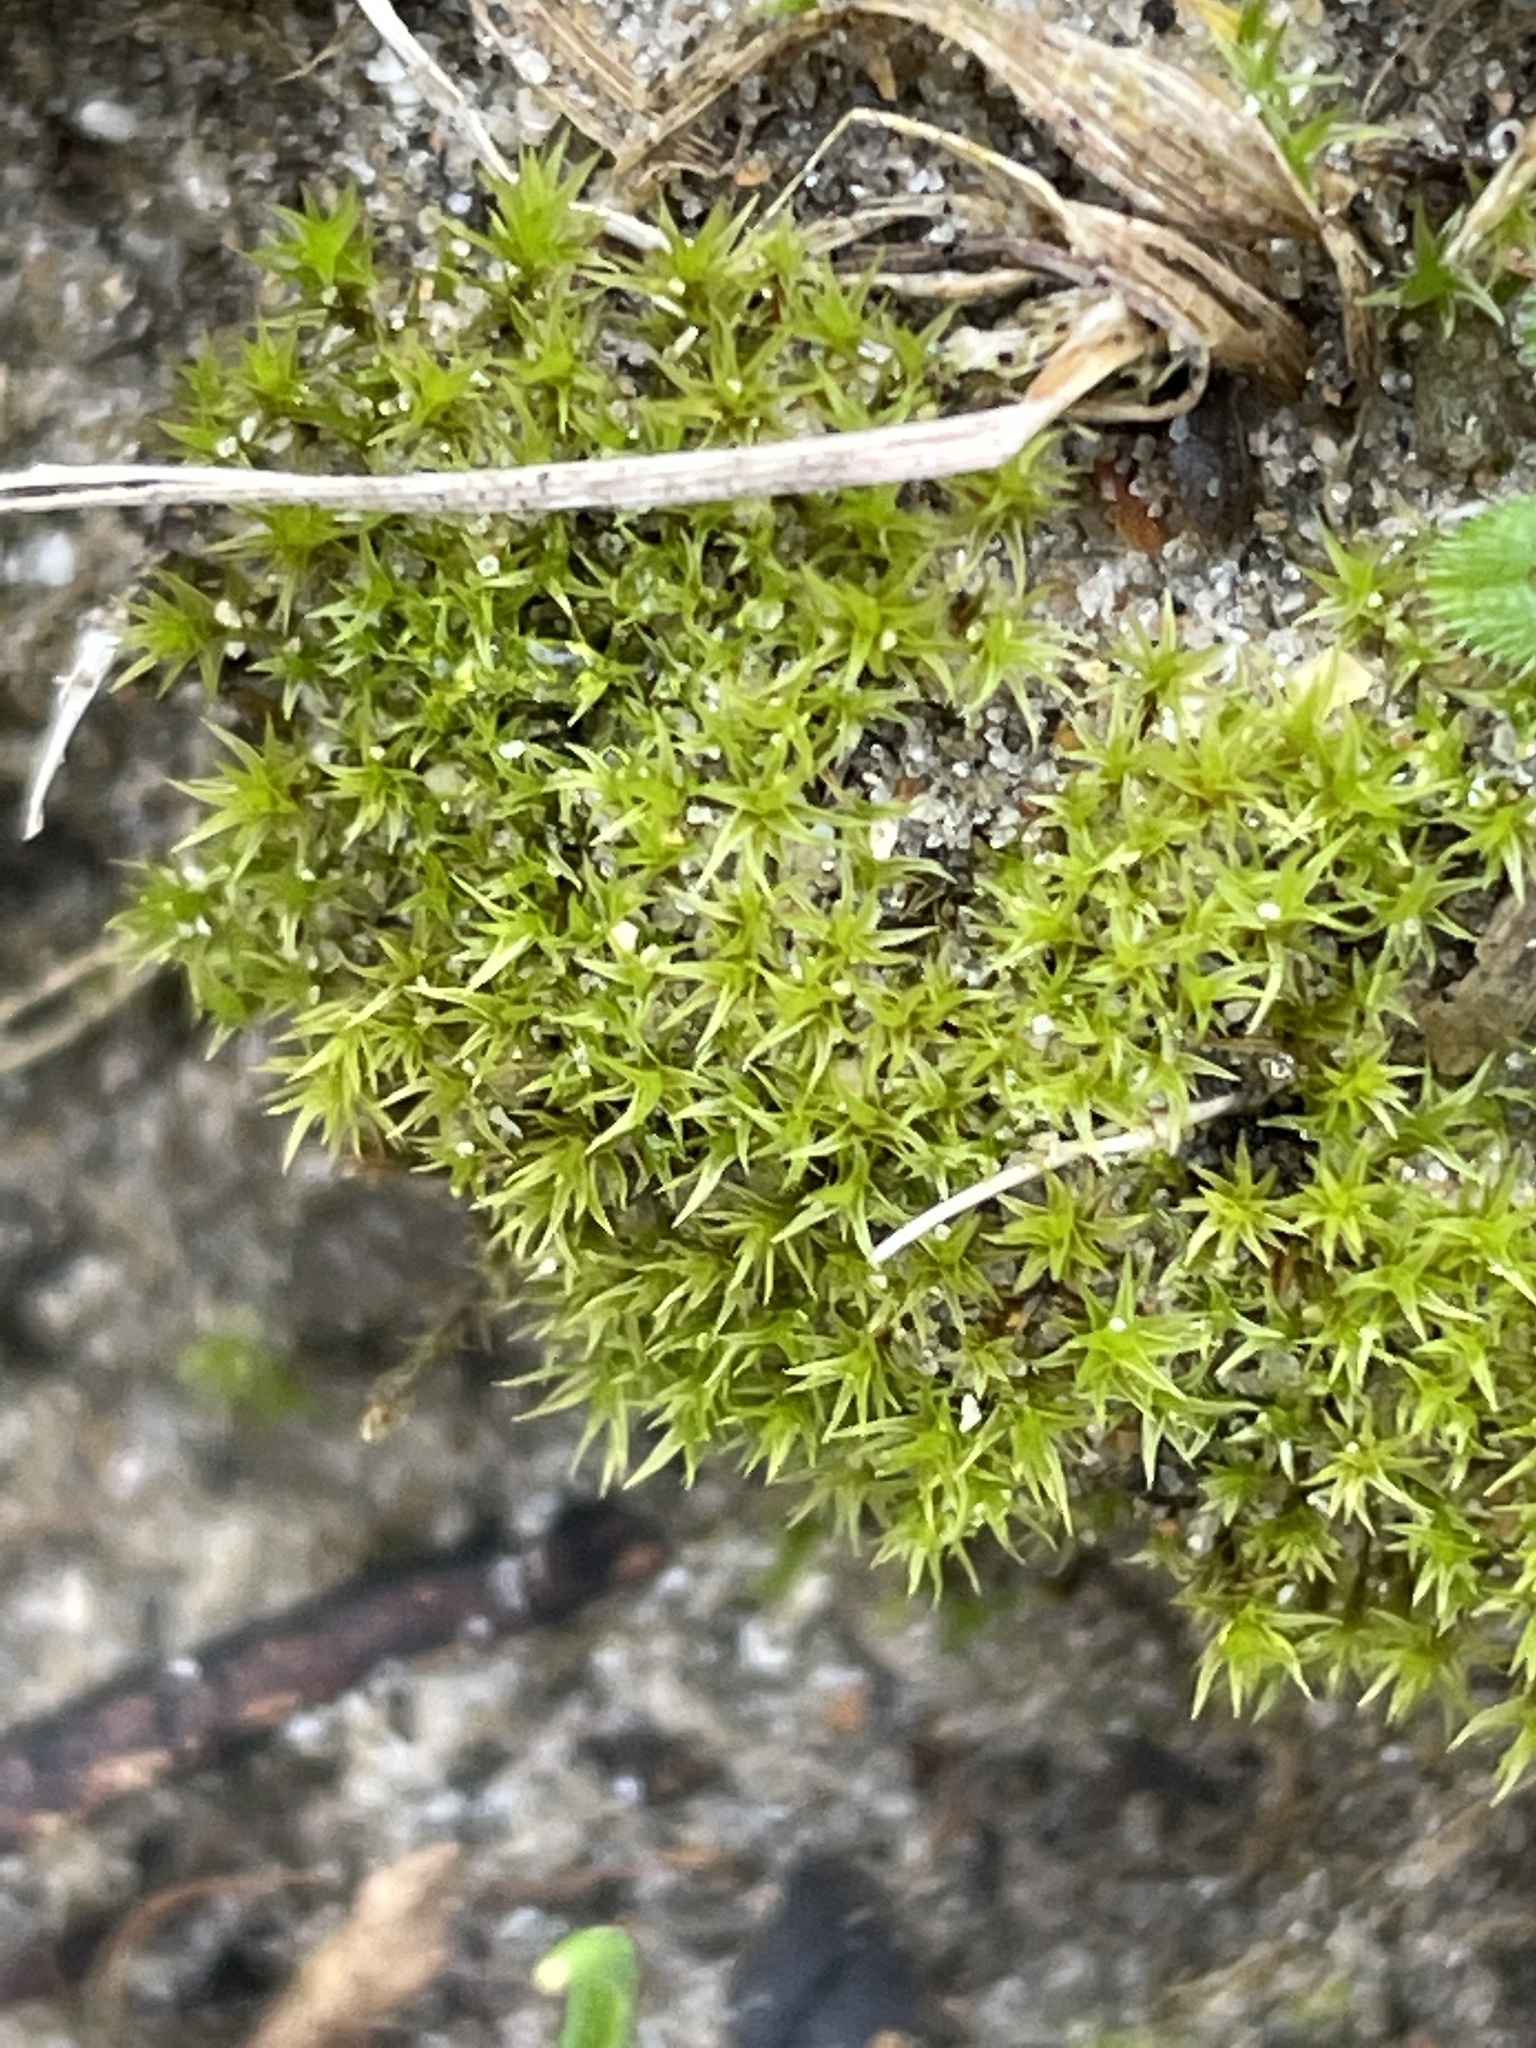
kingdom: Plantae
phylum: Bryophyta
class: Bryopsida
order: Dicranales
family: Ditrichaceae
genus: Ceratodon
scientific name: Ceratodon purpureus
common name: Redshank
